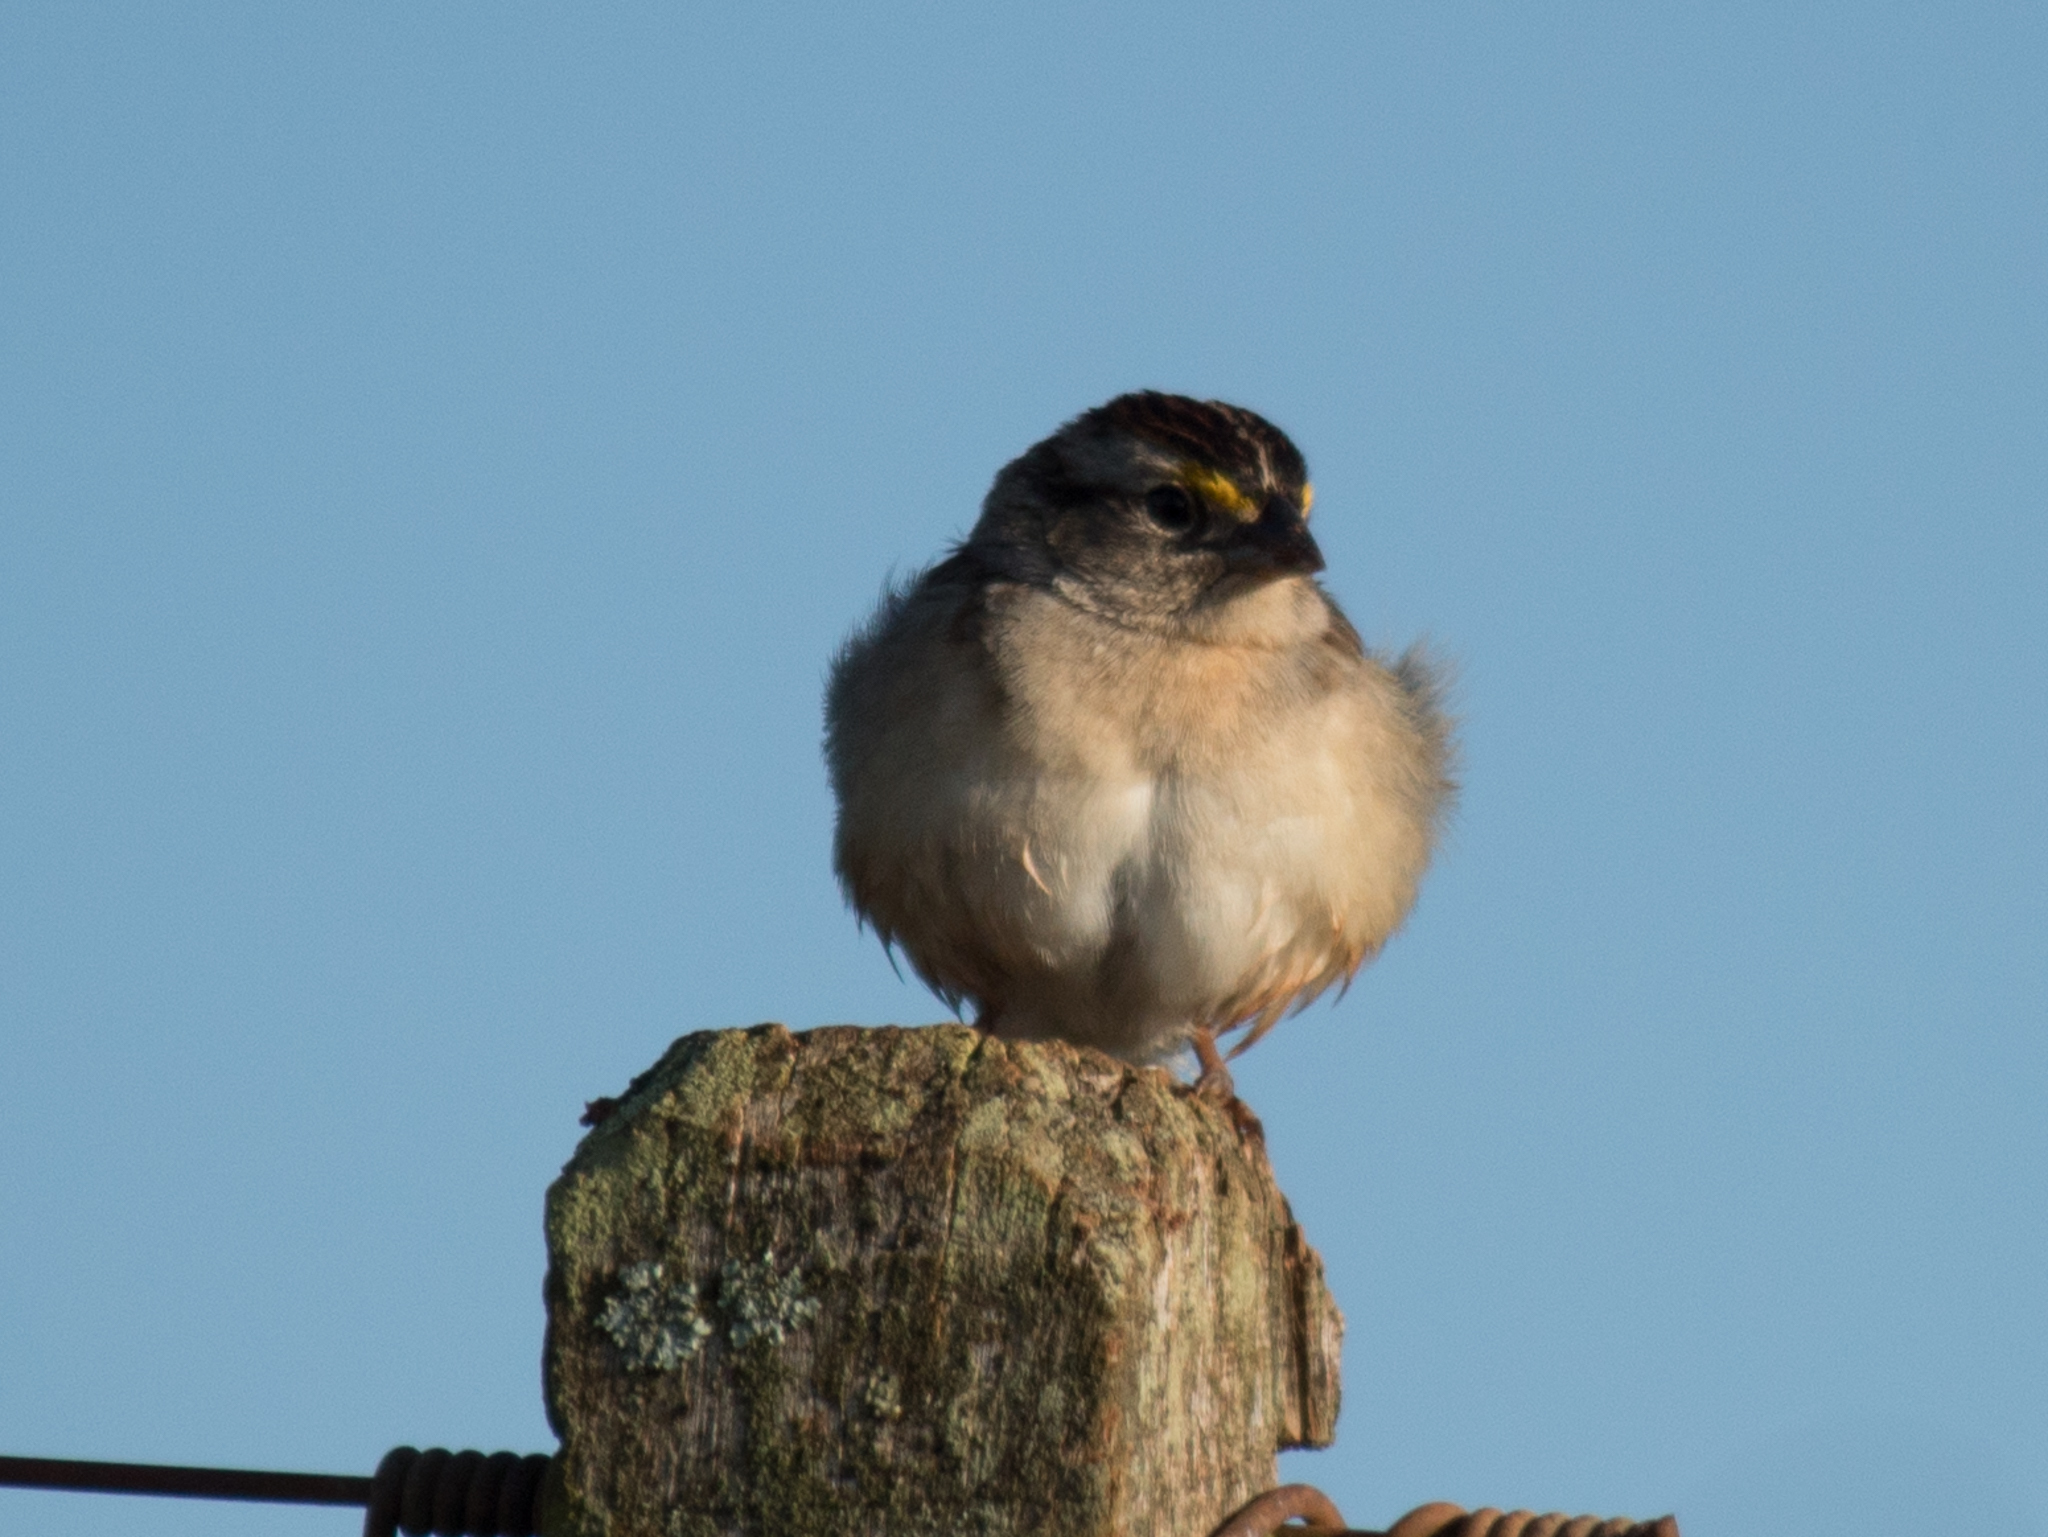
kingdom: Animalia
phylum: Chordata
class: Aves
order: Passeriformes
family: Passerellidae
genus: Ammodramus
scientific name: Ammodramus humeralis
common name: Grassland sparrow
